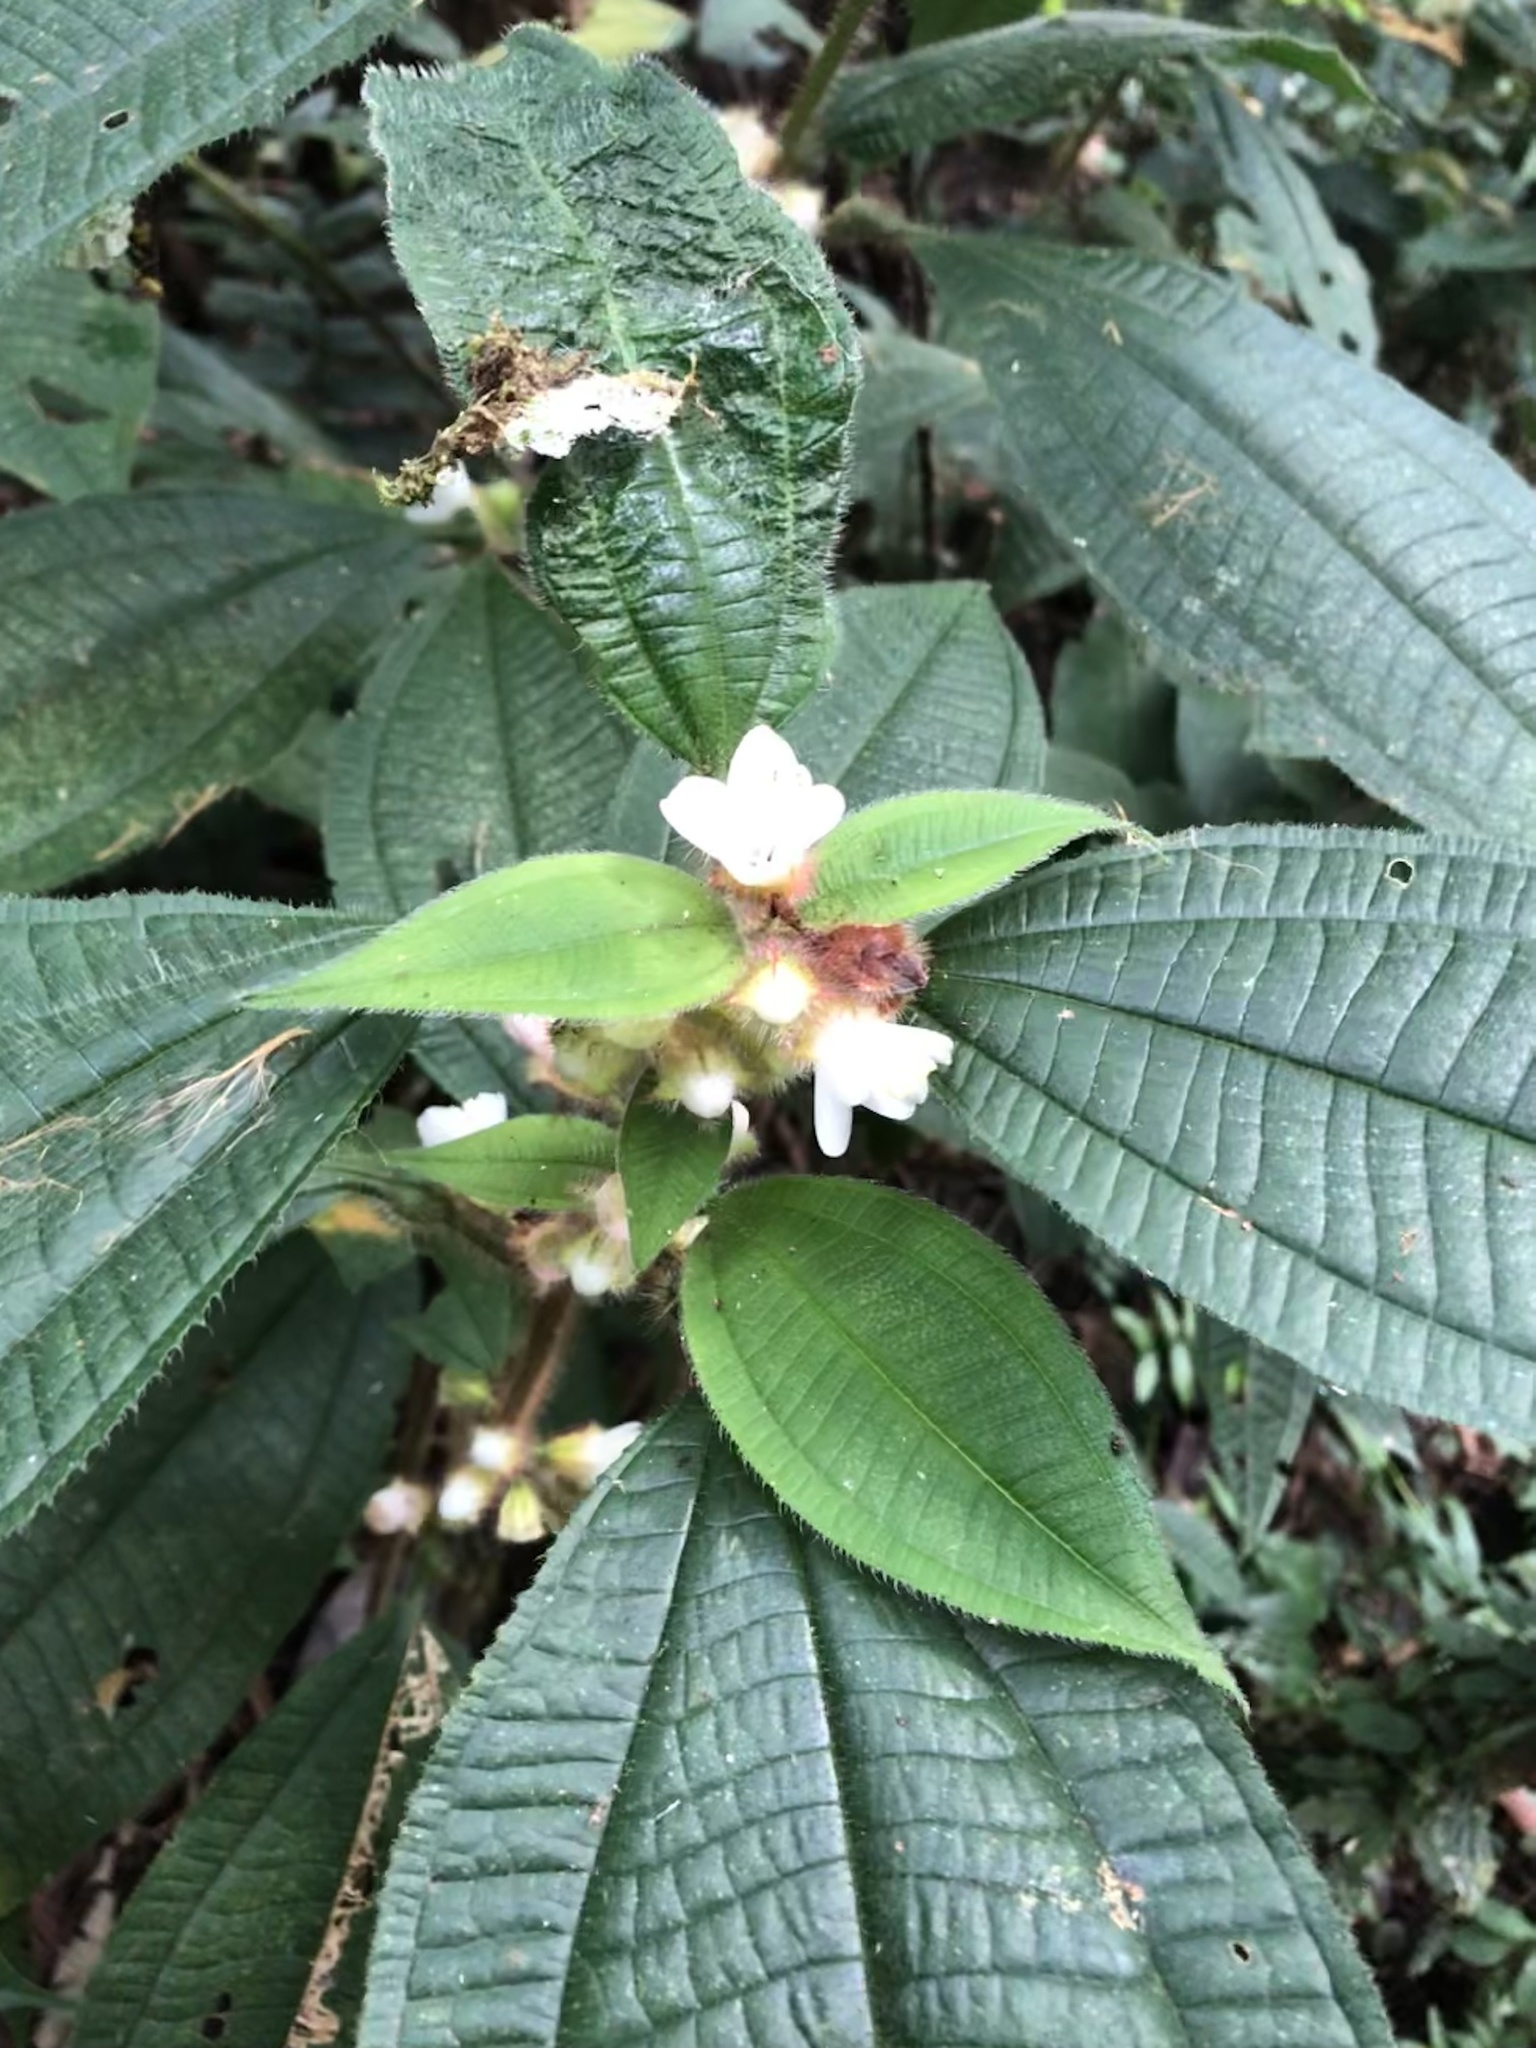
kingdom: Plantae
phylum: Tracheophyta
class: Magnoliopsida
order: Myrtales
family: Melastomataceae
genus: Miconia
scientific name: Miconia microphysca
